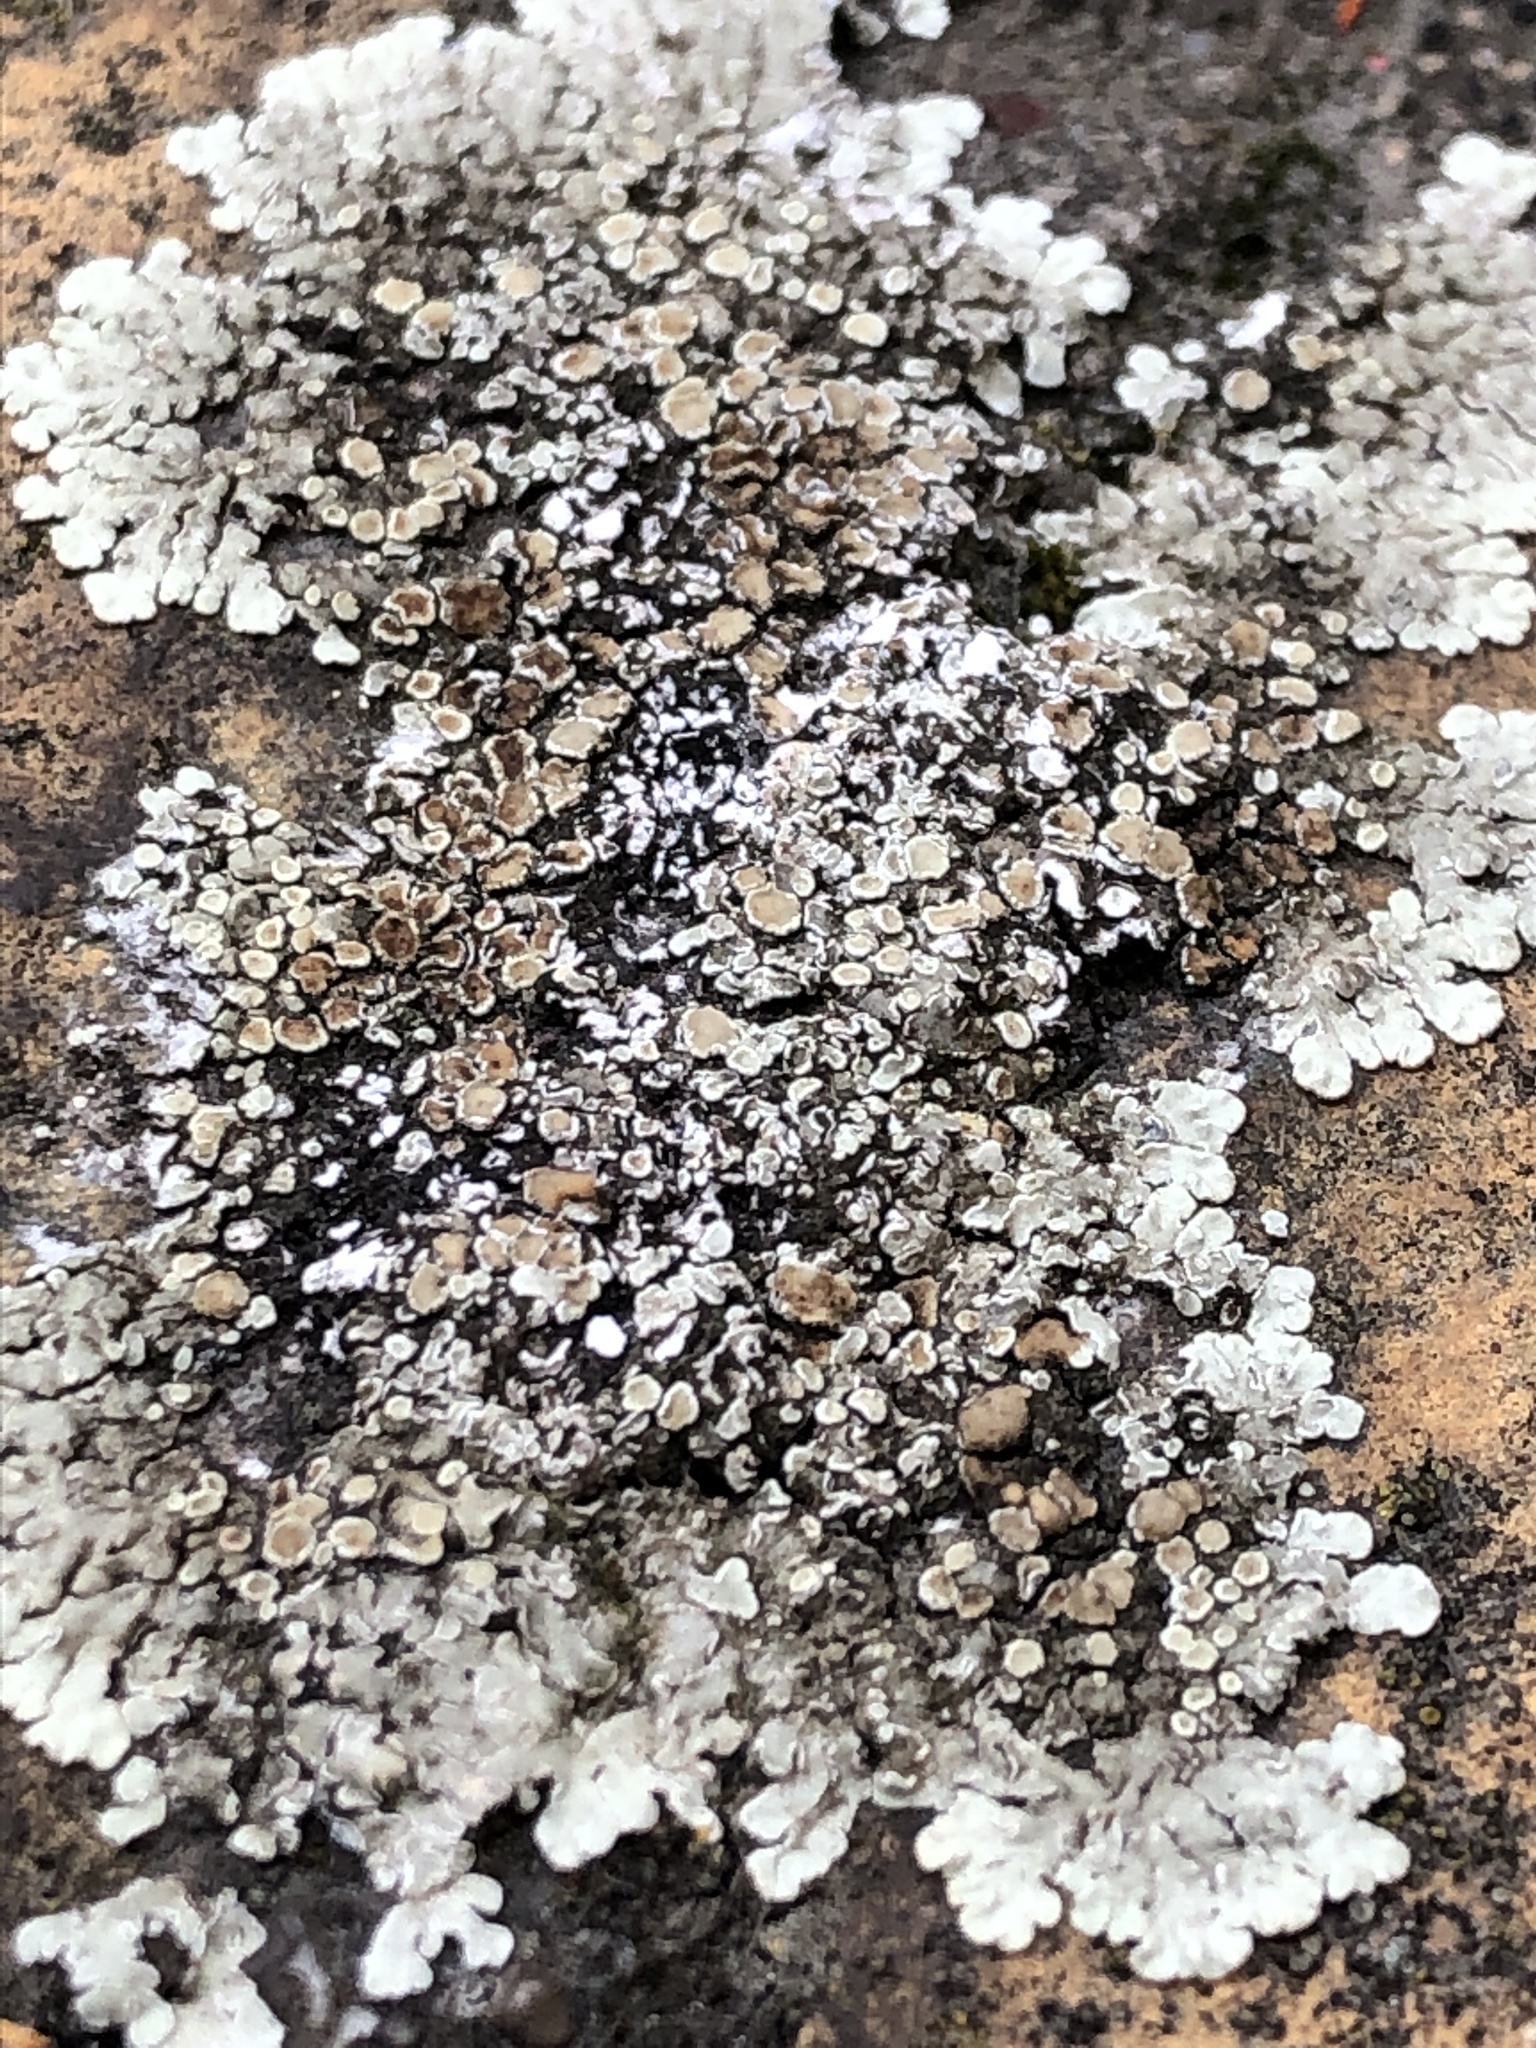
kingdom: Fungi
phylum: Ascomycota
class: Lecanoromycetes
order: Lecanorales
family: Lecanoraceae
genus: Protoparmeliopsis
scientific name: Protoparmeliopsis muralis
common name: Stonewall rim lichen
